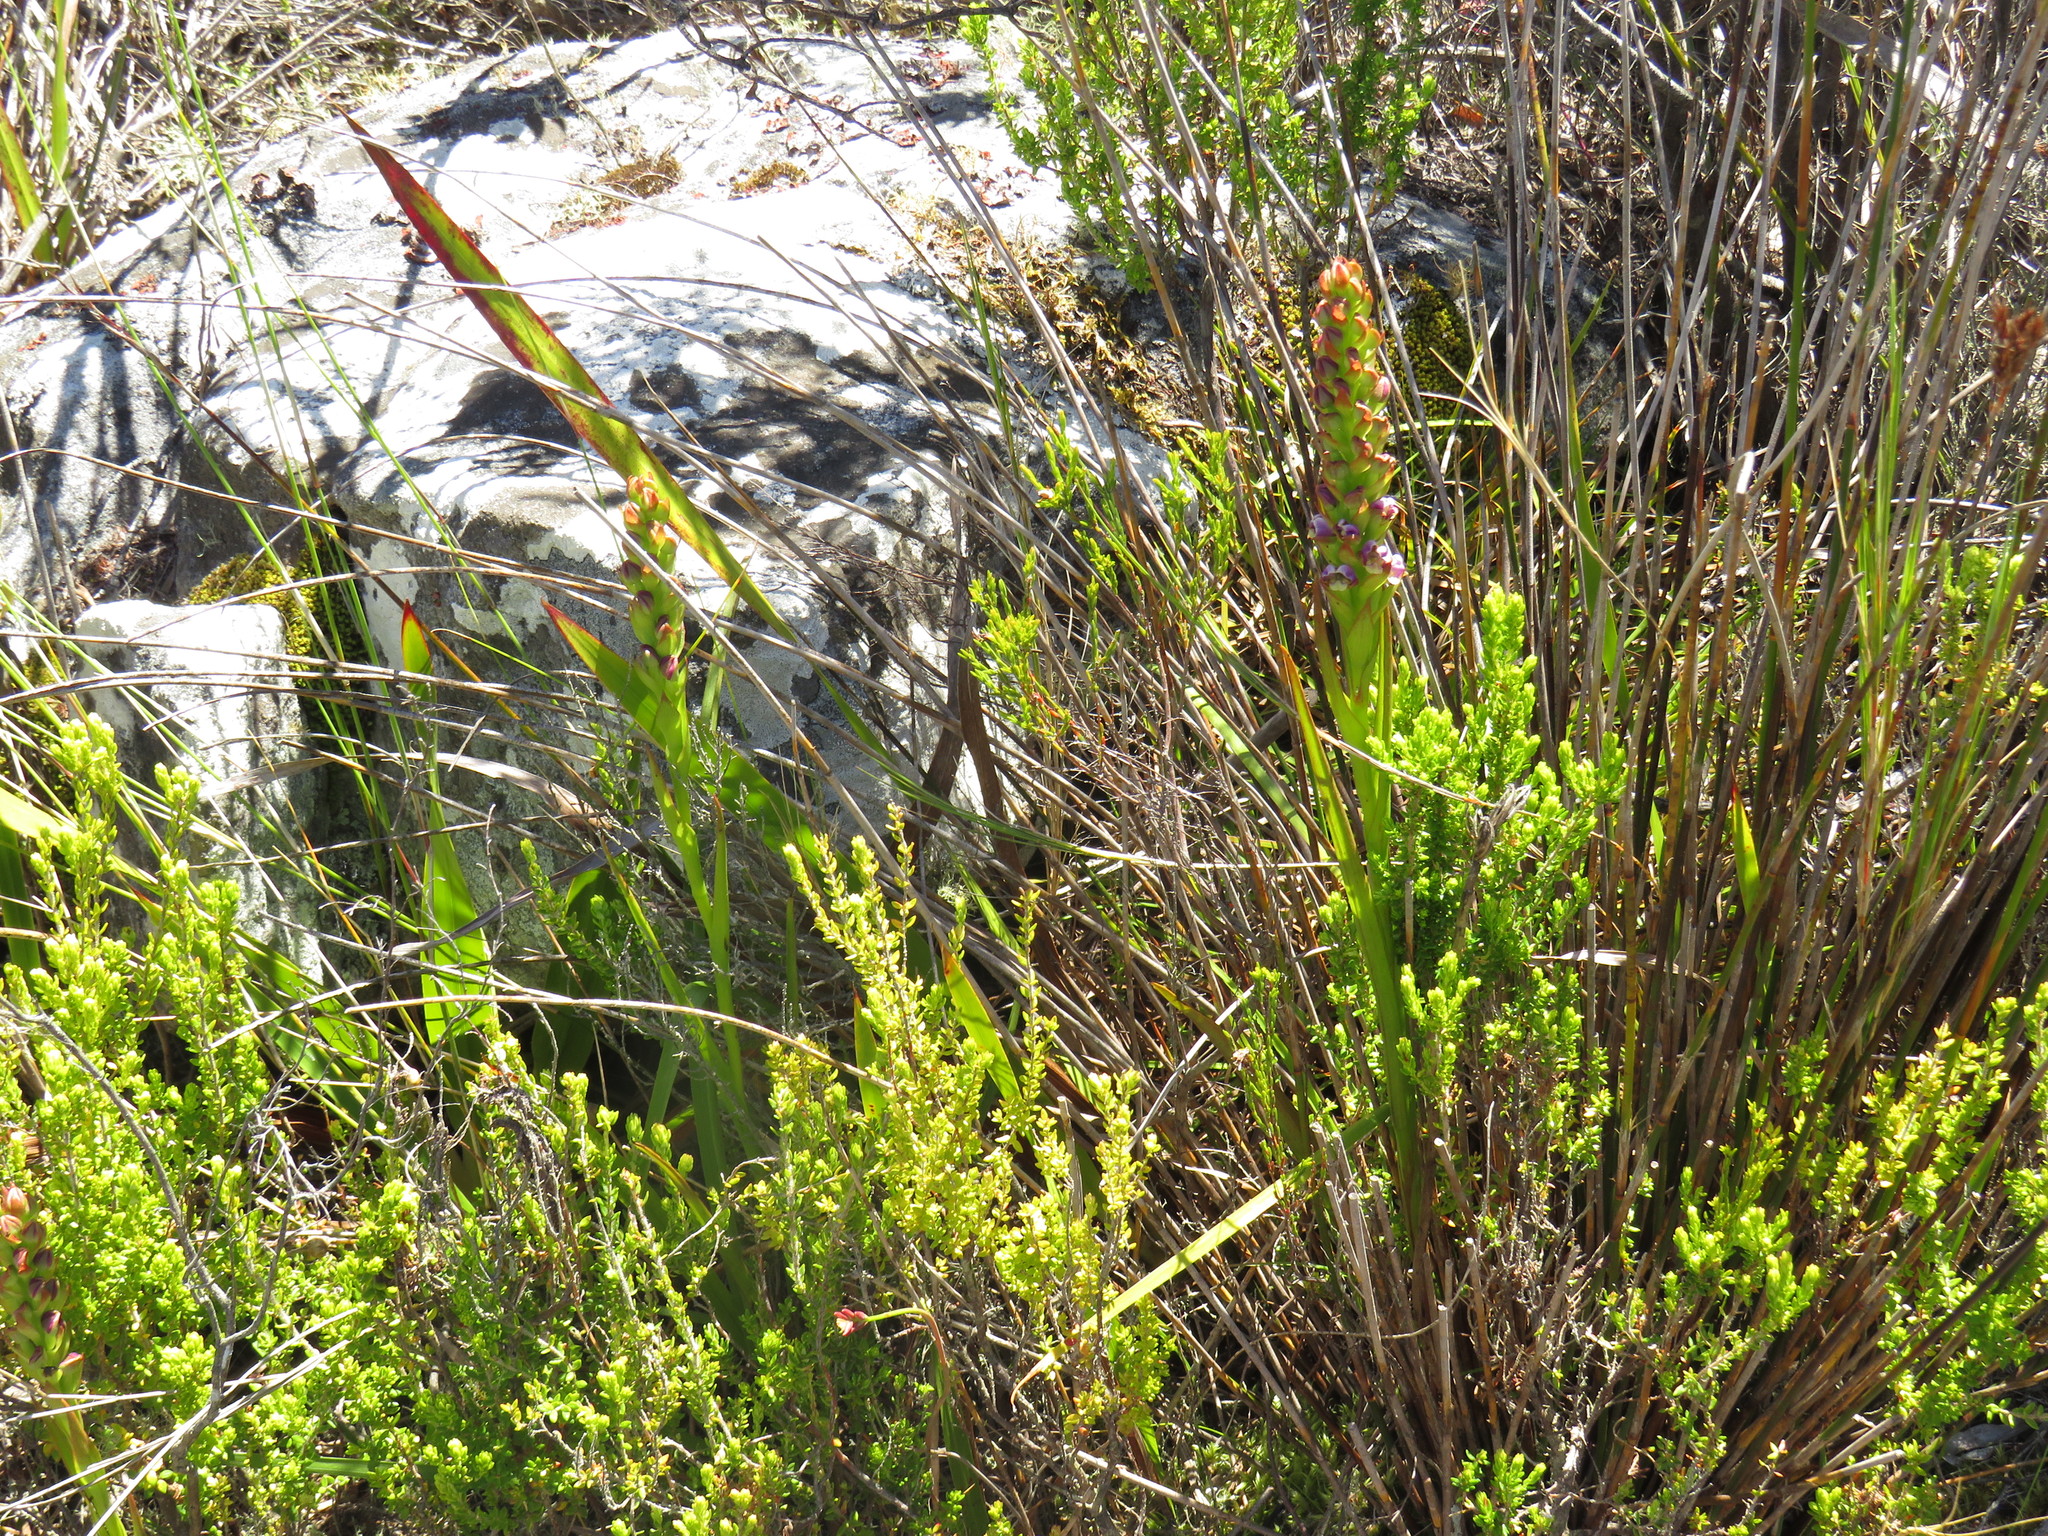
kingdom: Plantae
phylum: Tracheophyta
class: Liliopsida
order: Asparagales
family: Orchidaceae
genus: Evotella
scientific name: Evotella carnosa
